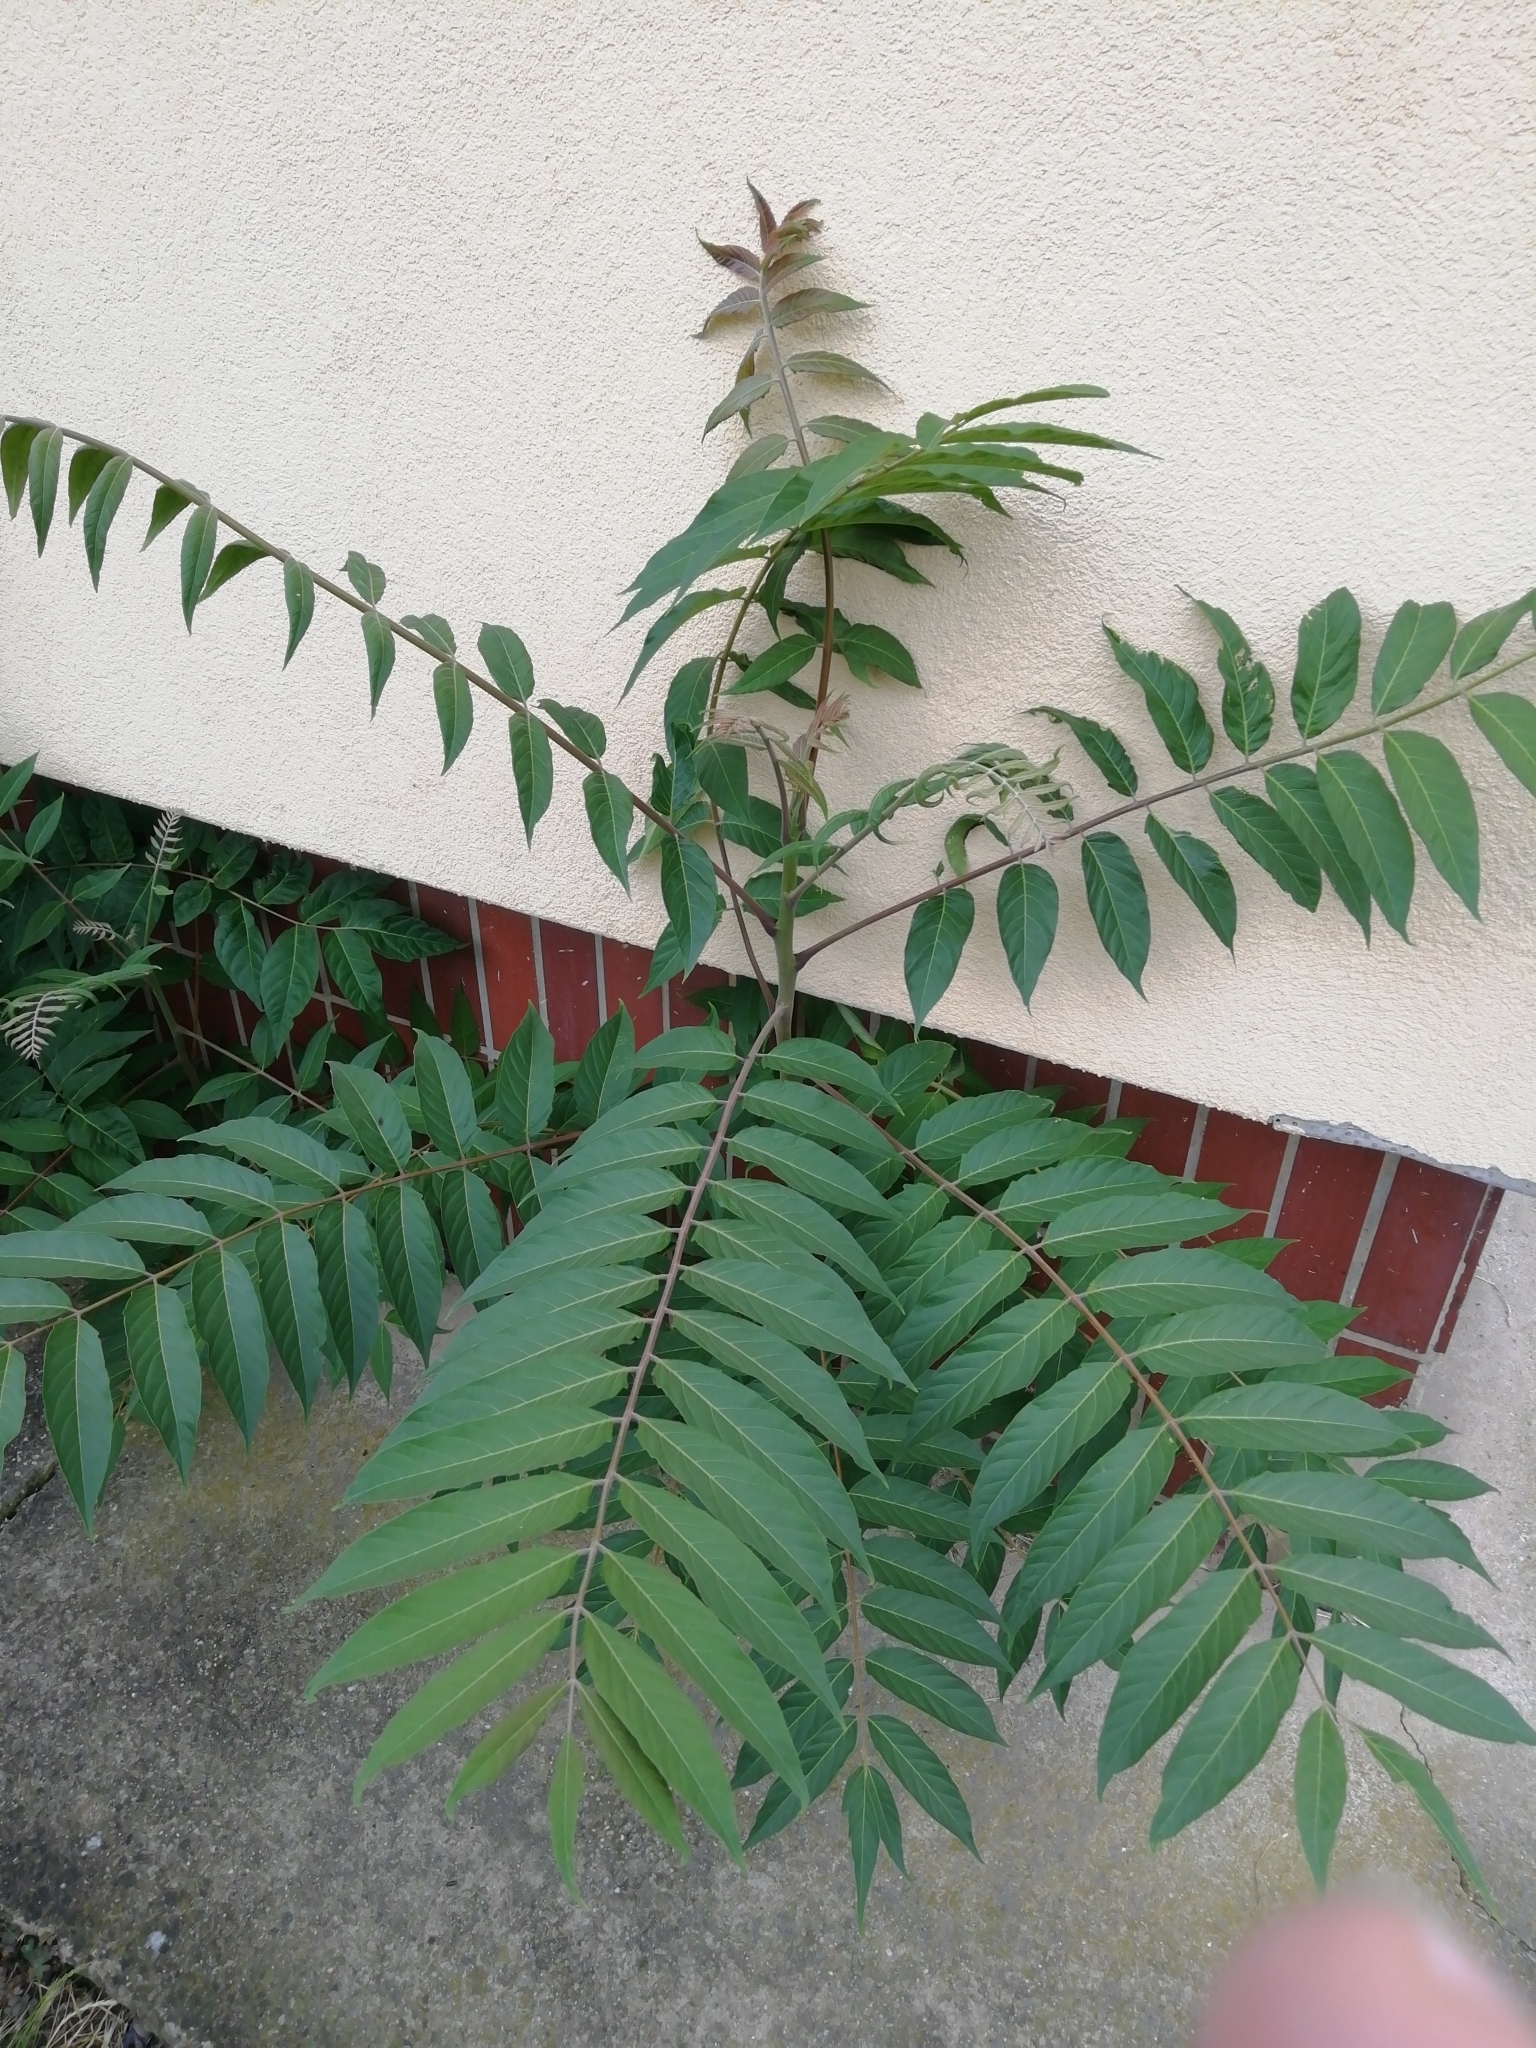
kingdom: Plantae
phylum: Tracheophyta
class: Magnoliopsida
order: Sapindales
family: Simaroubaceae
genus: Ailanthus
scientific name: Ailanthus altissima
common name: Tree-of-heaven
